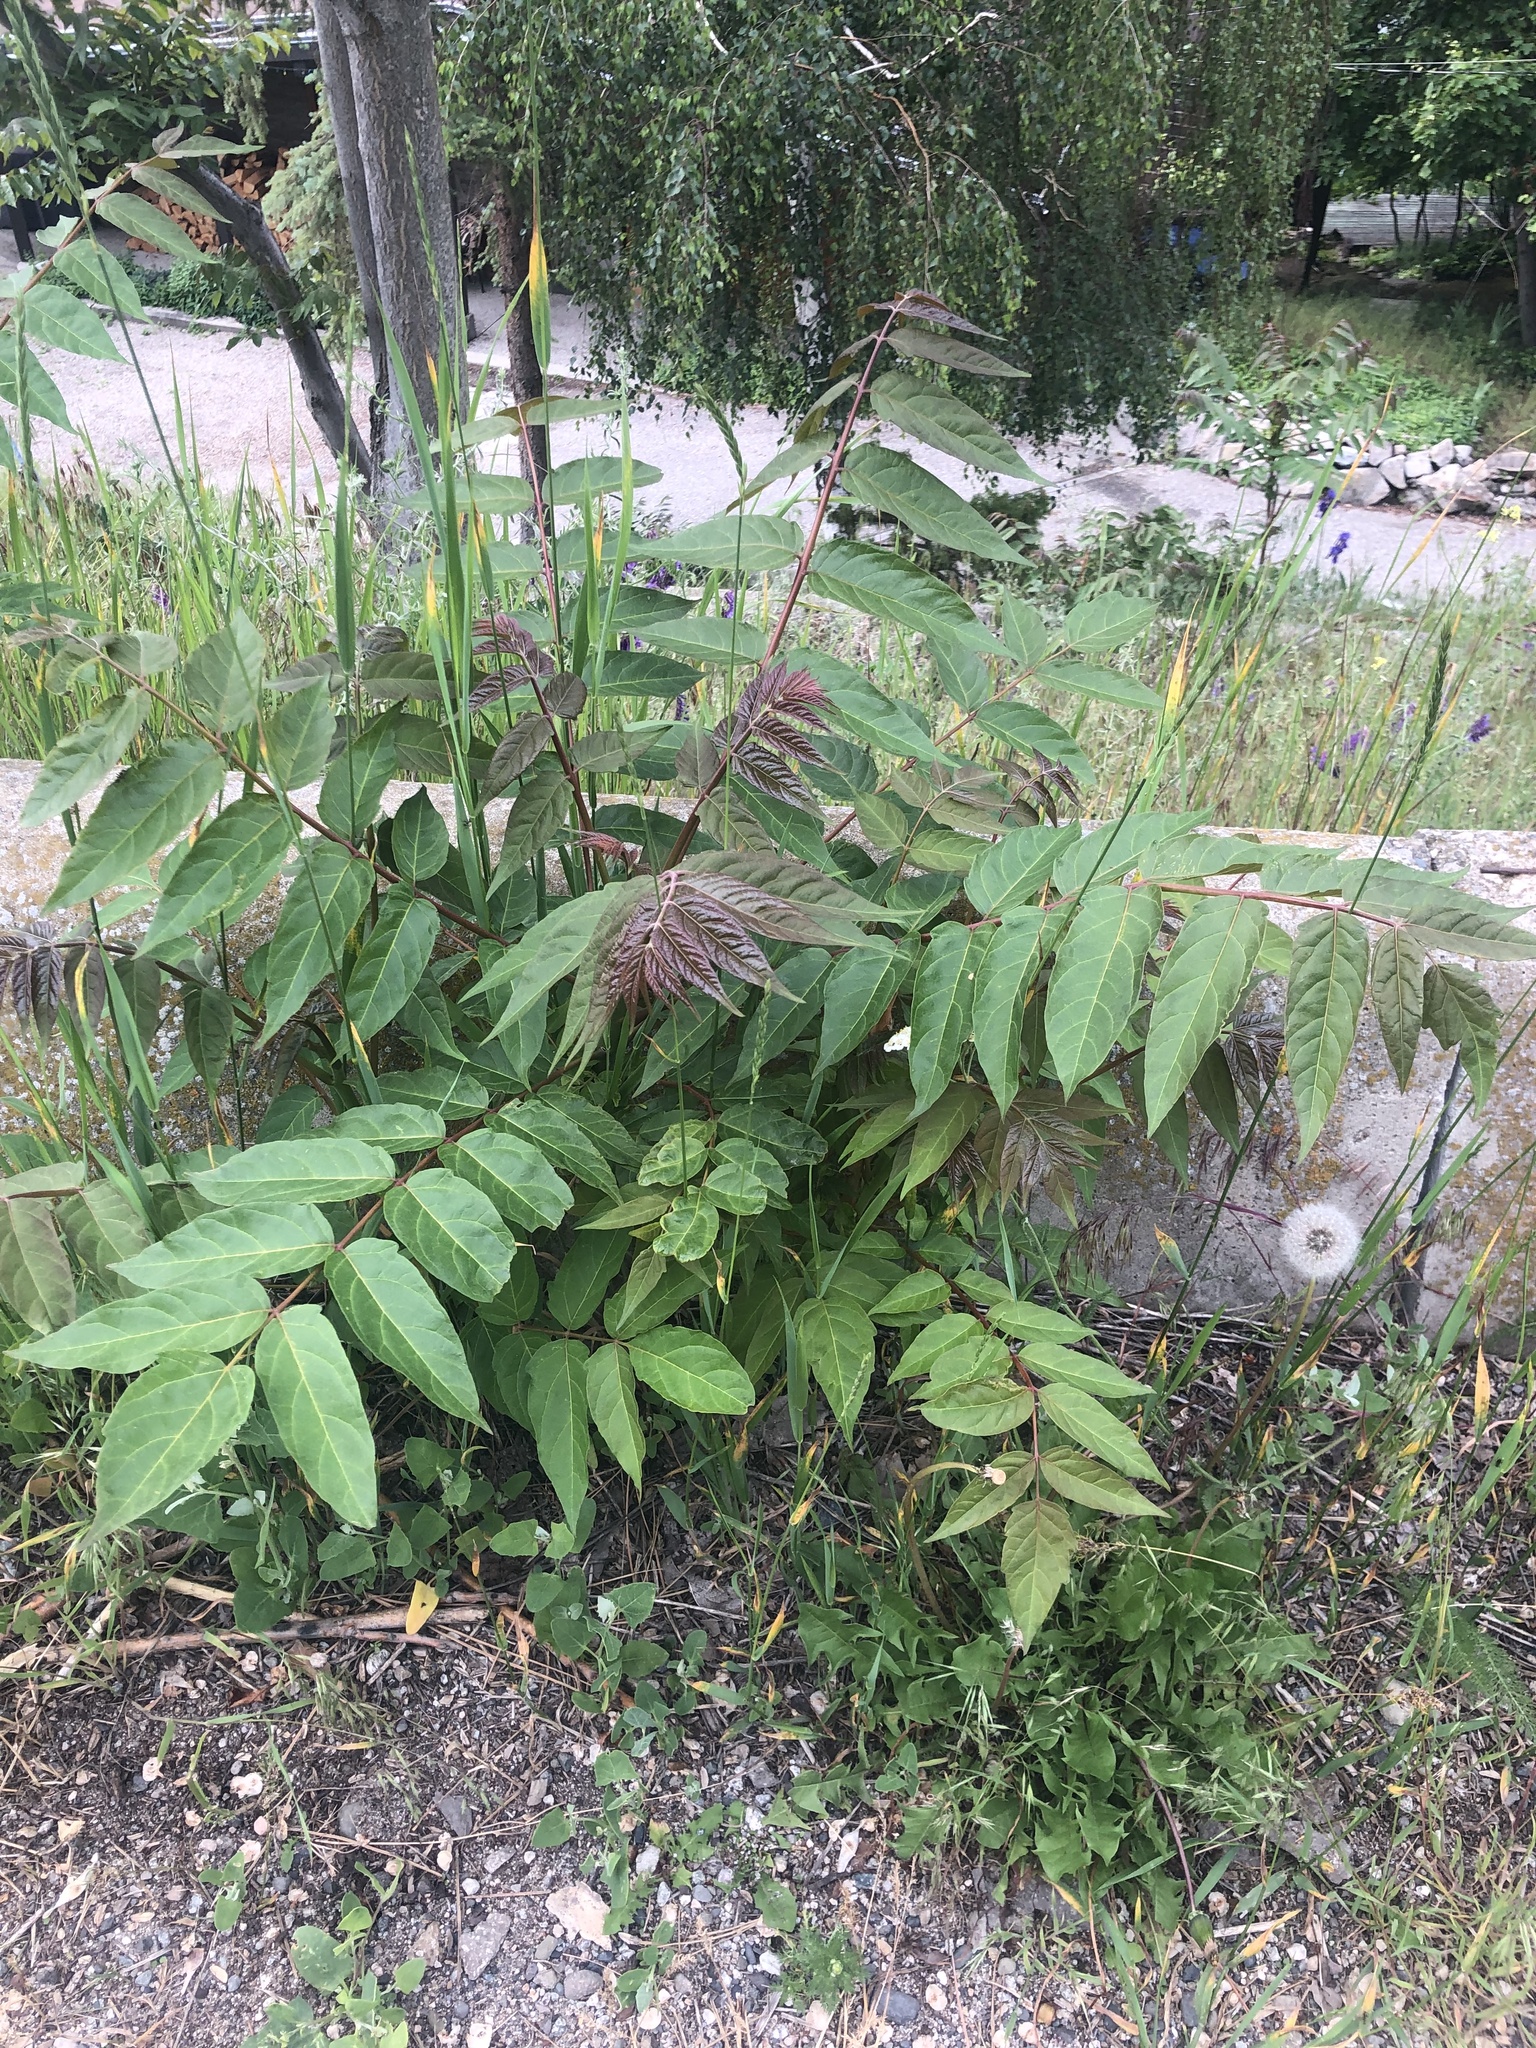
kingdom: Plantae
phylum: Tracheophyta
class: Magnoliopsida
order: Sapindales
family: Simaroubaceae
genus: Ailanthus
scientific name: Ailanthus altissima
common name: Tree-of-heaven
